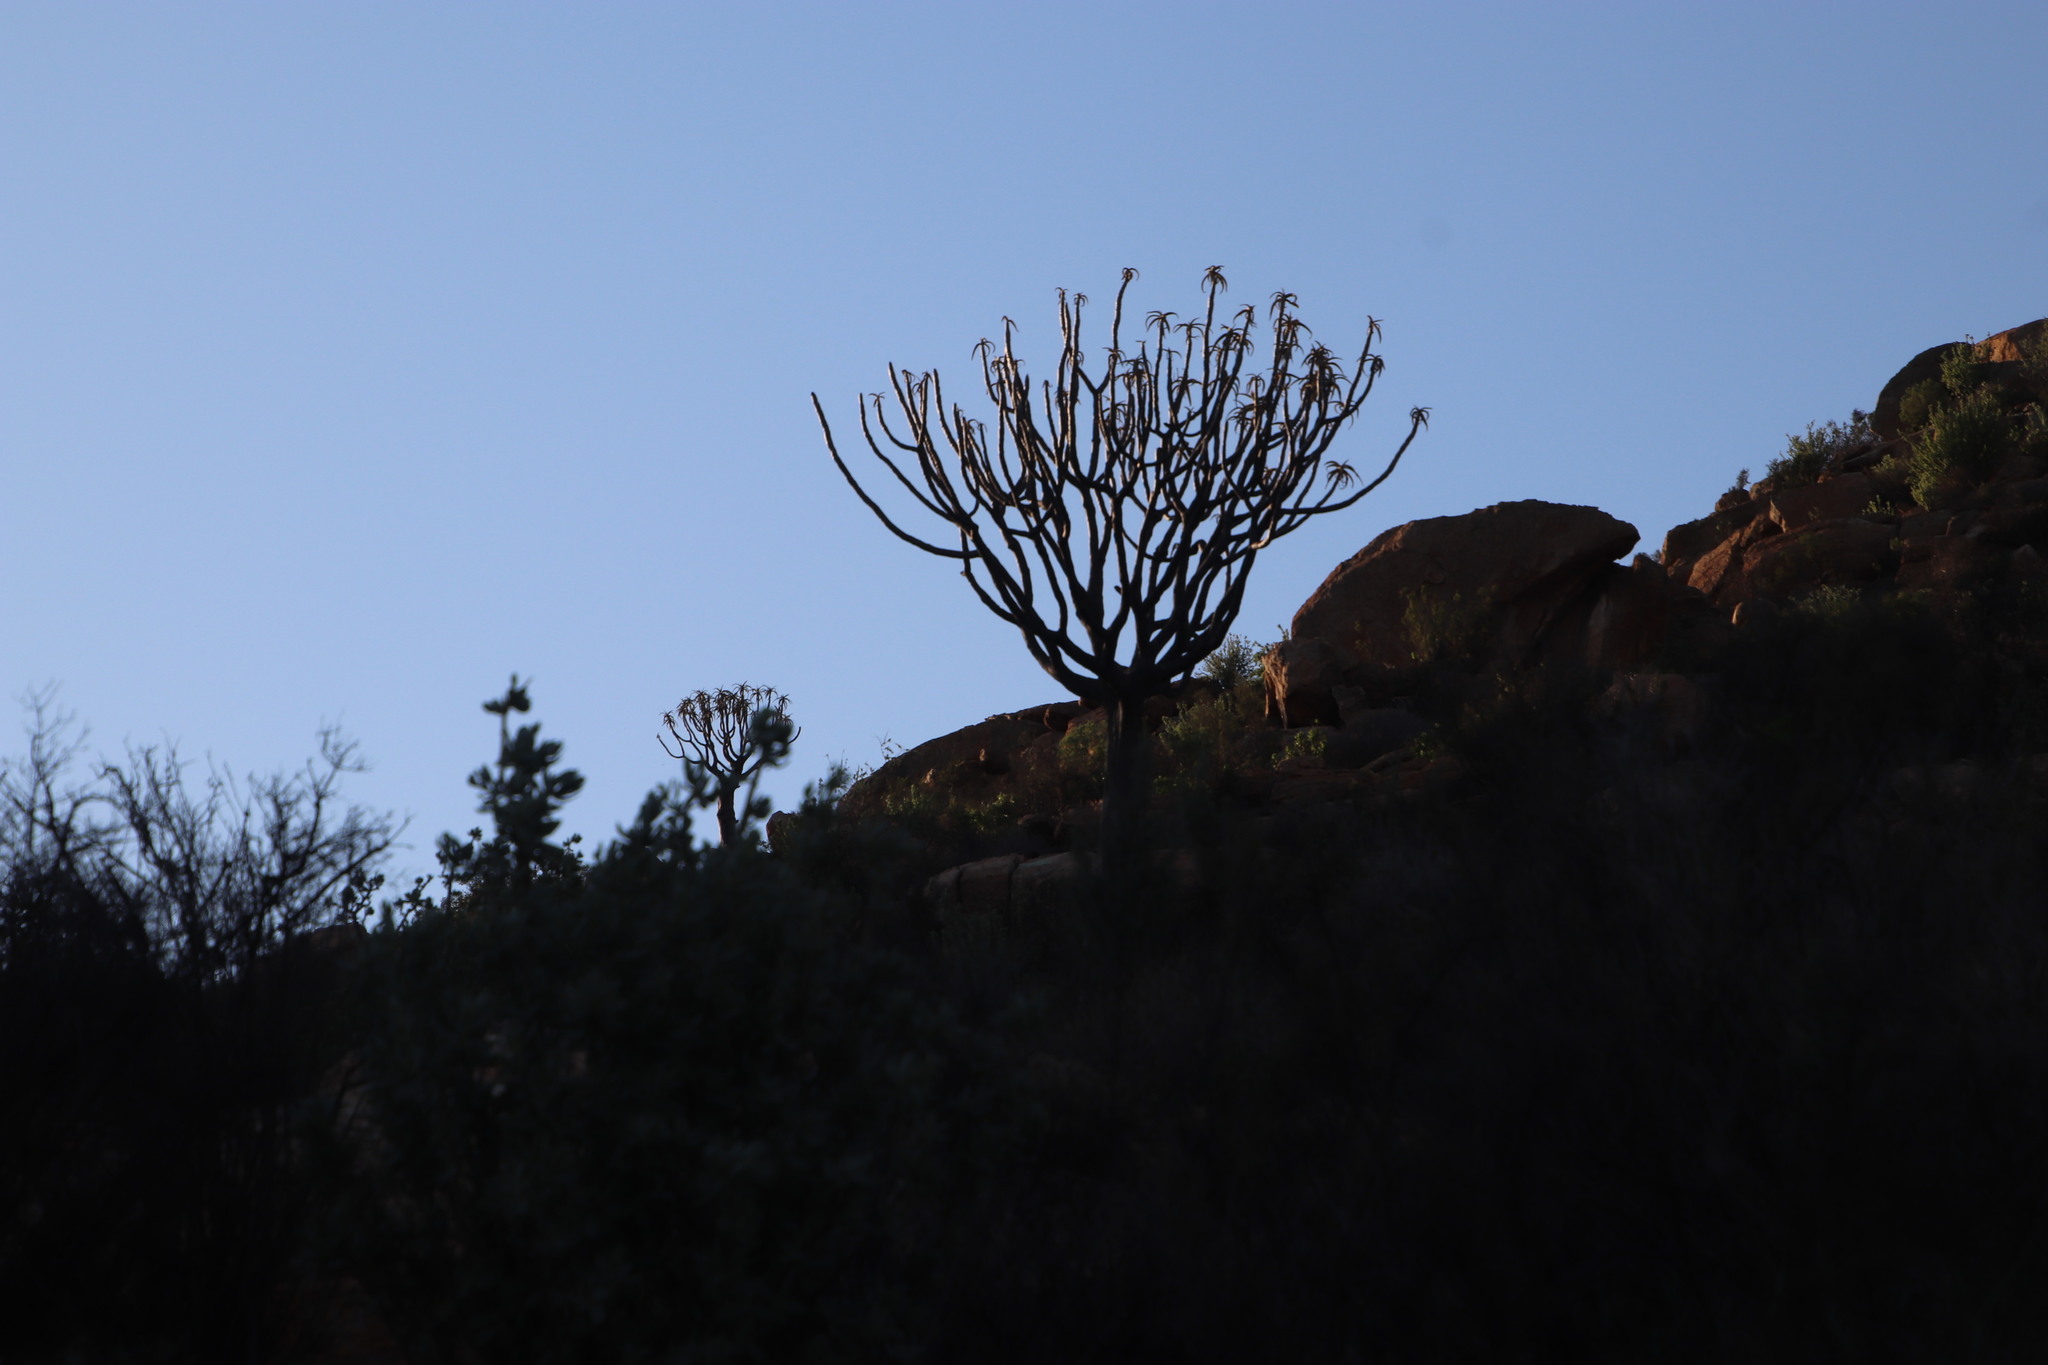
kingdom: Plantae
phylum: Tracheophyta
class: Liliopsida
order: Asparagales
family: Asphodelaceae
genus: Aloidendron
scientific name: Aloidendron dichotomum
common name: Quiver tree
